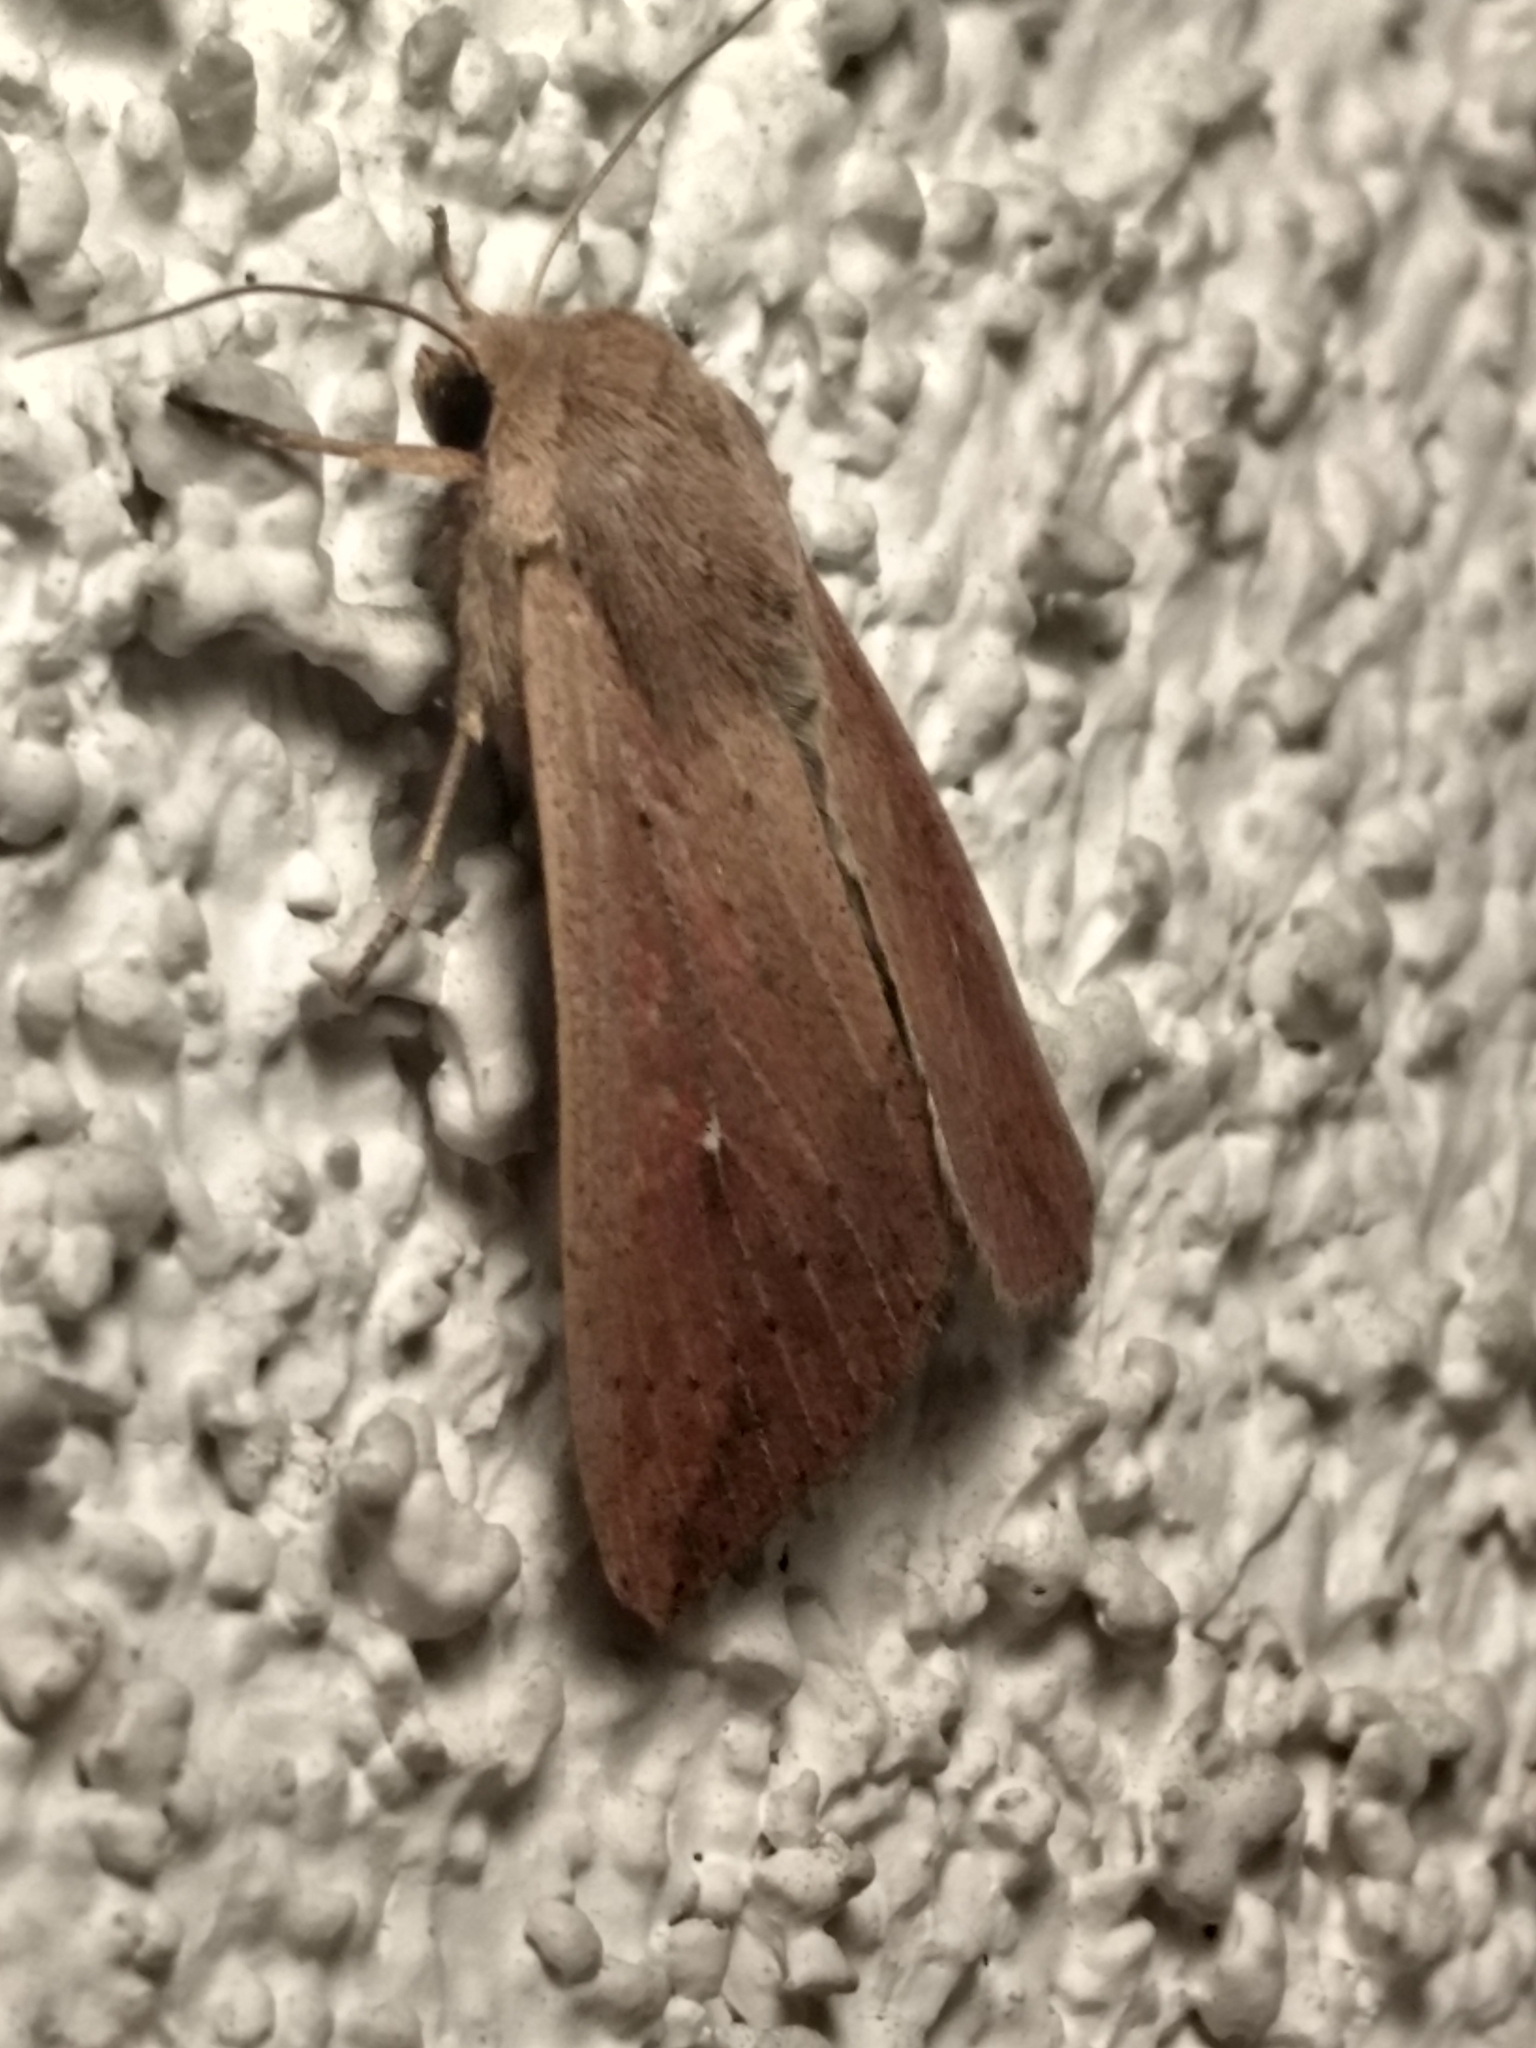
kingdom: Animalia
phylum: Arthropoda
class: Insecta
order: Lepidoptera
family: Noctuidae
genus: Mythimna
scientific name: Mythimna unipuncta
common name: White-speck
